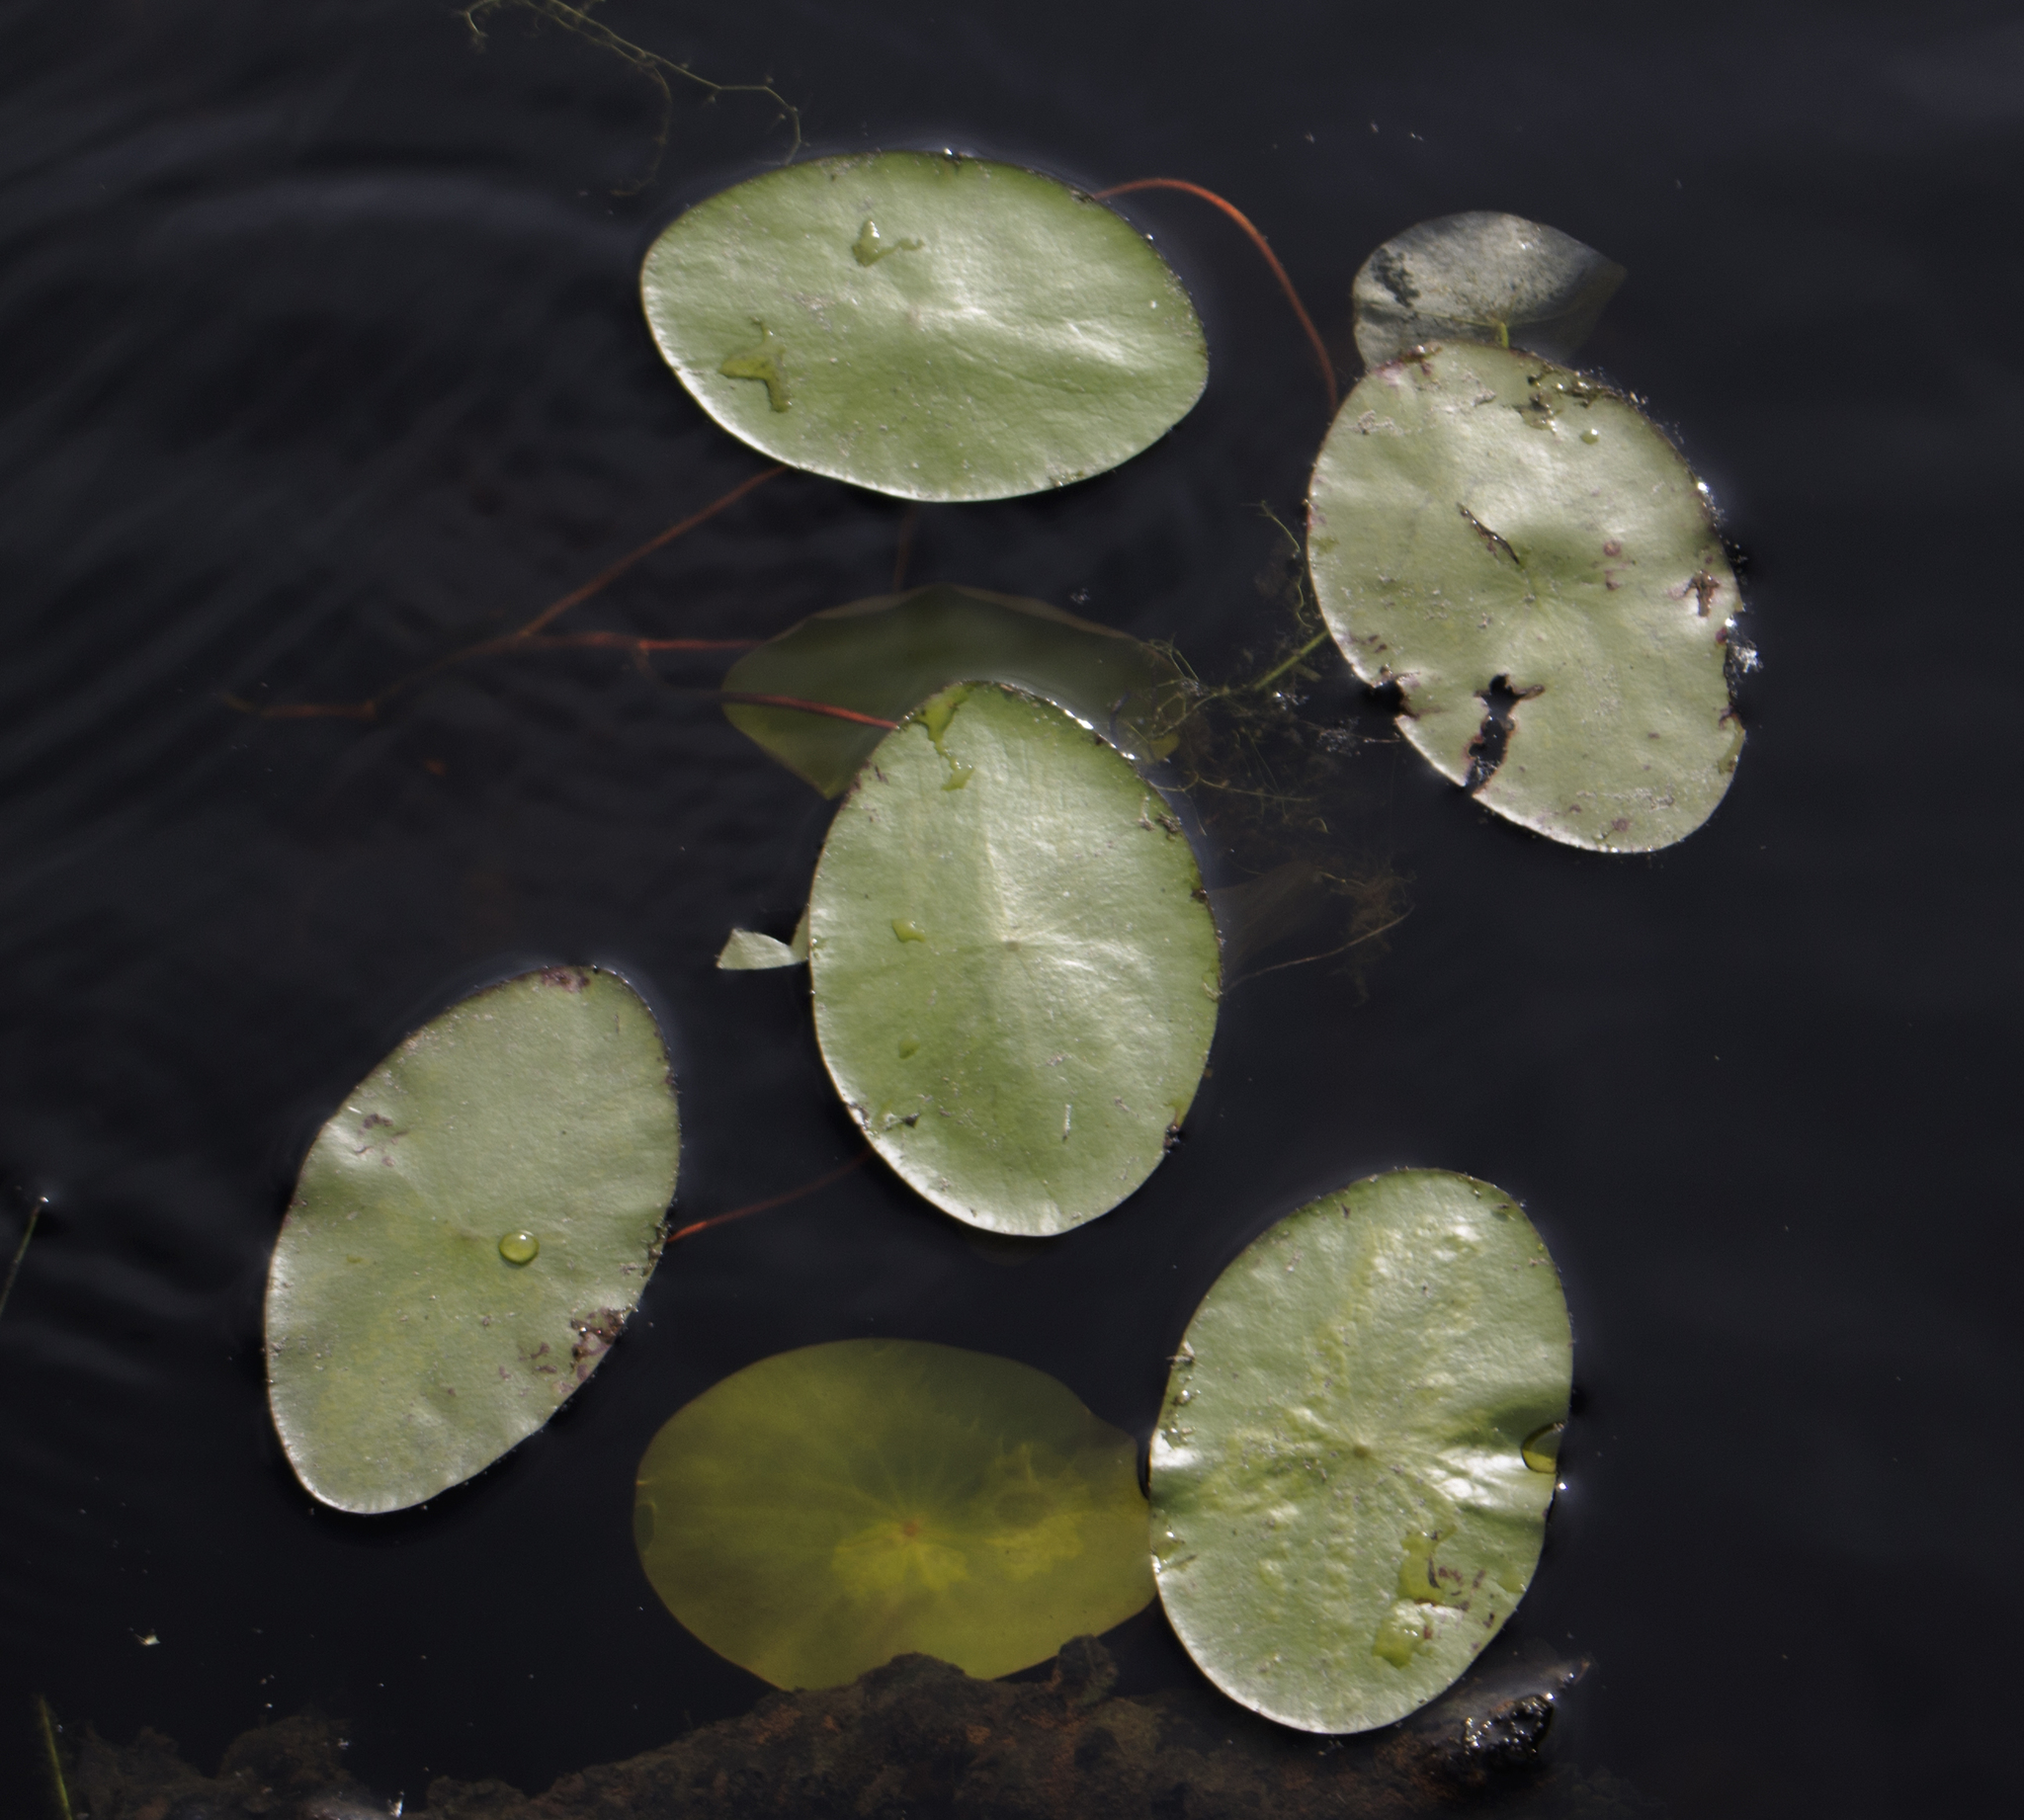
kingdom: Plantae
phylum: Tracheophyta
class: Magnoliopsida
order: Nymphaeales
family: Cabombaceae
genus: Brasenia
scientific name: Brasenia schreberi
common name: Water-shield
